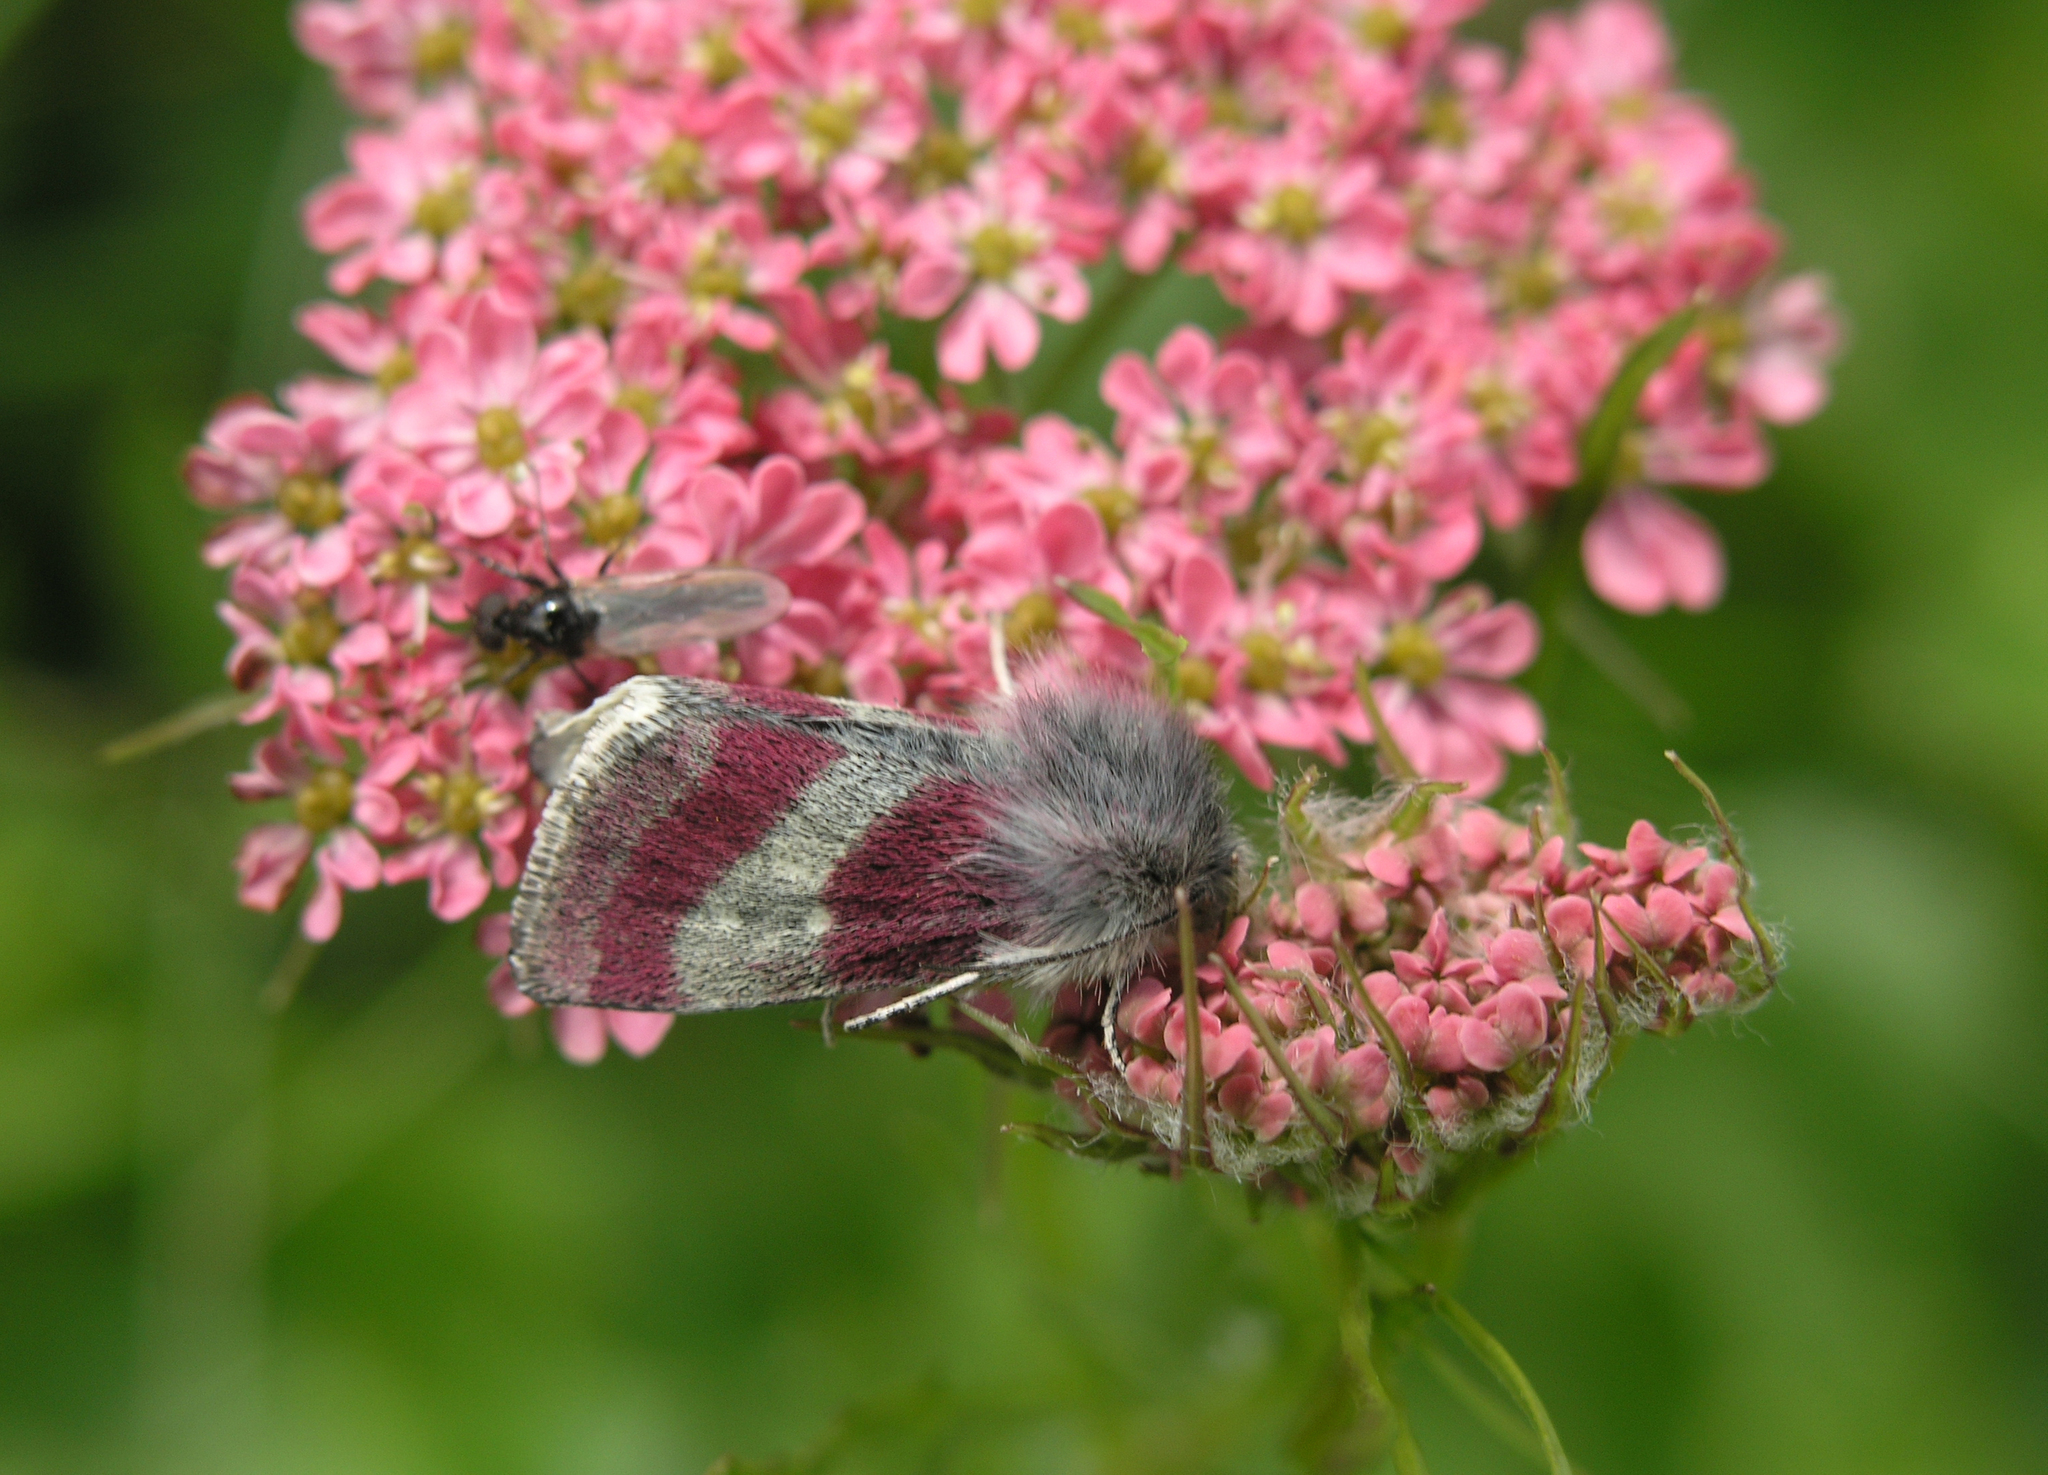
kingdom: Animalia
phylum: Arthropoda
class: Insecta
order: Lepidoptera
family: Noctuidae
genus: Schinia
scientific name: Schinia imperialis
